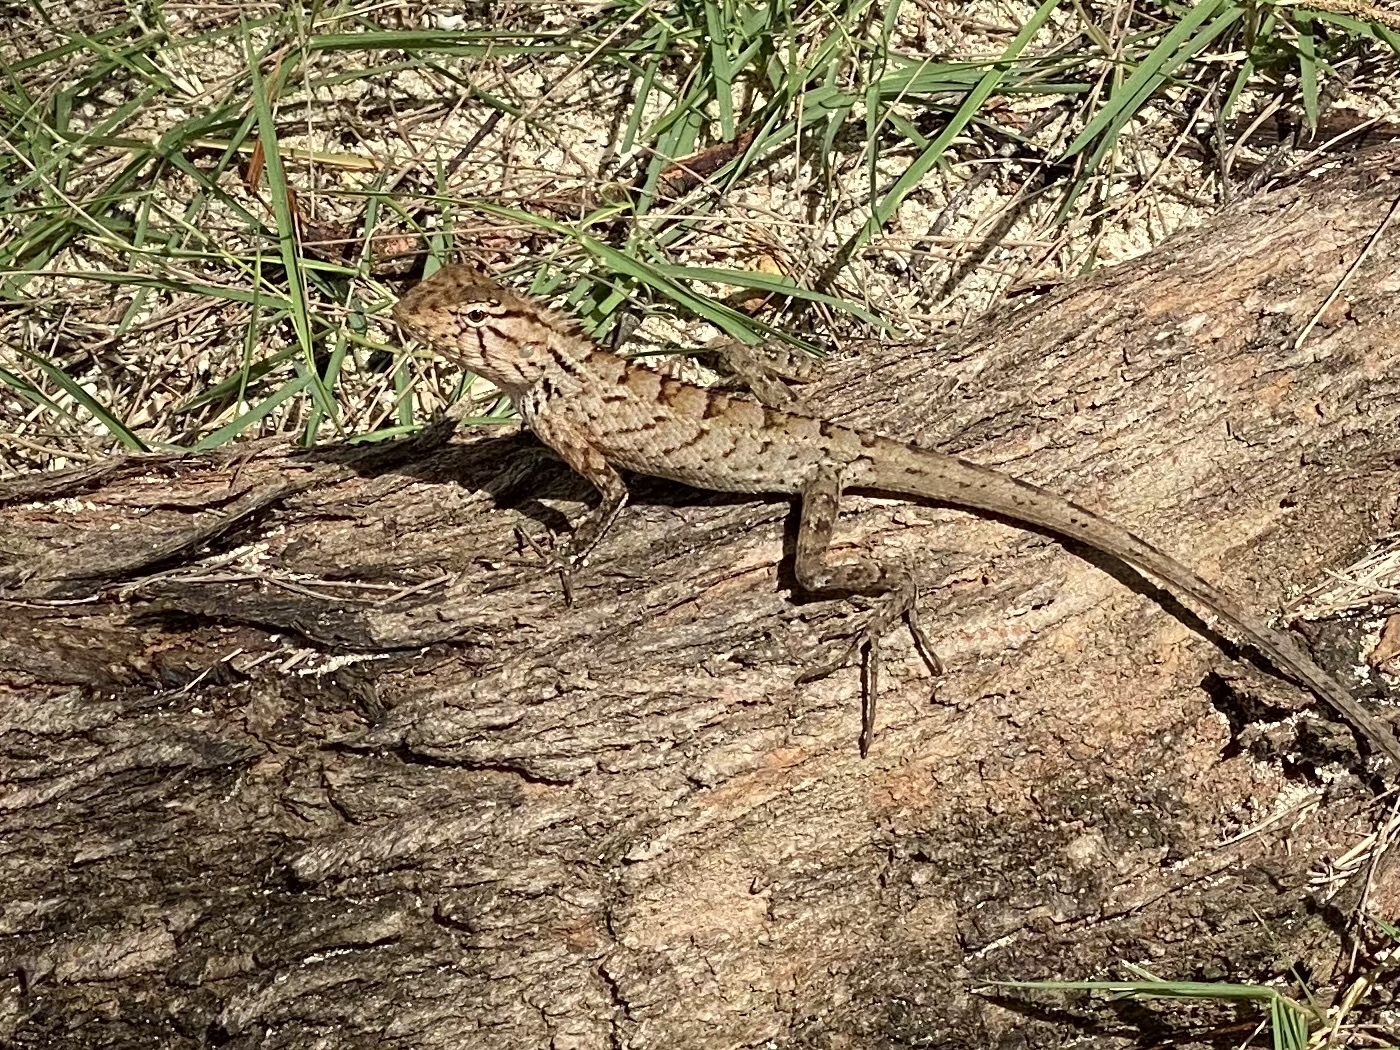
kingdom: Animalia
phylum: Chordata
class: Squamata
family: Agamidae
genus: Calotes
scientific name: Calotes versicolor
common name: Oriental garden lizard
